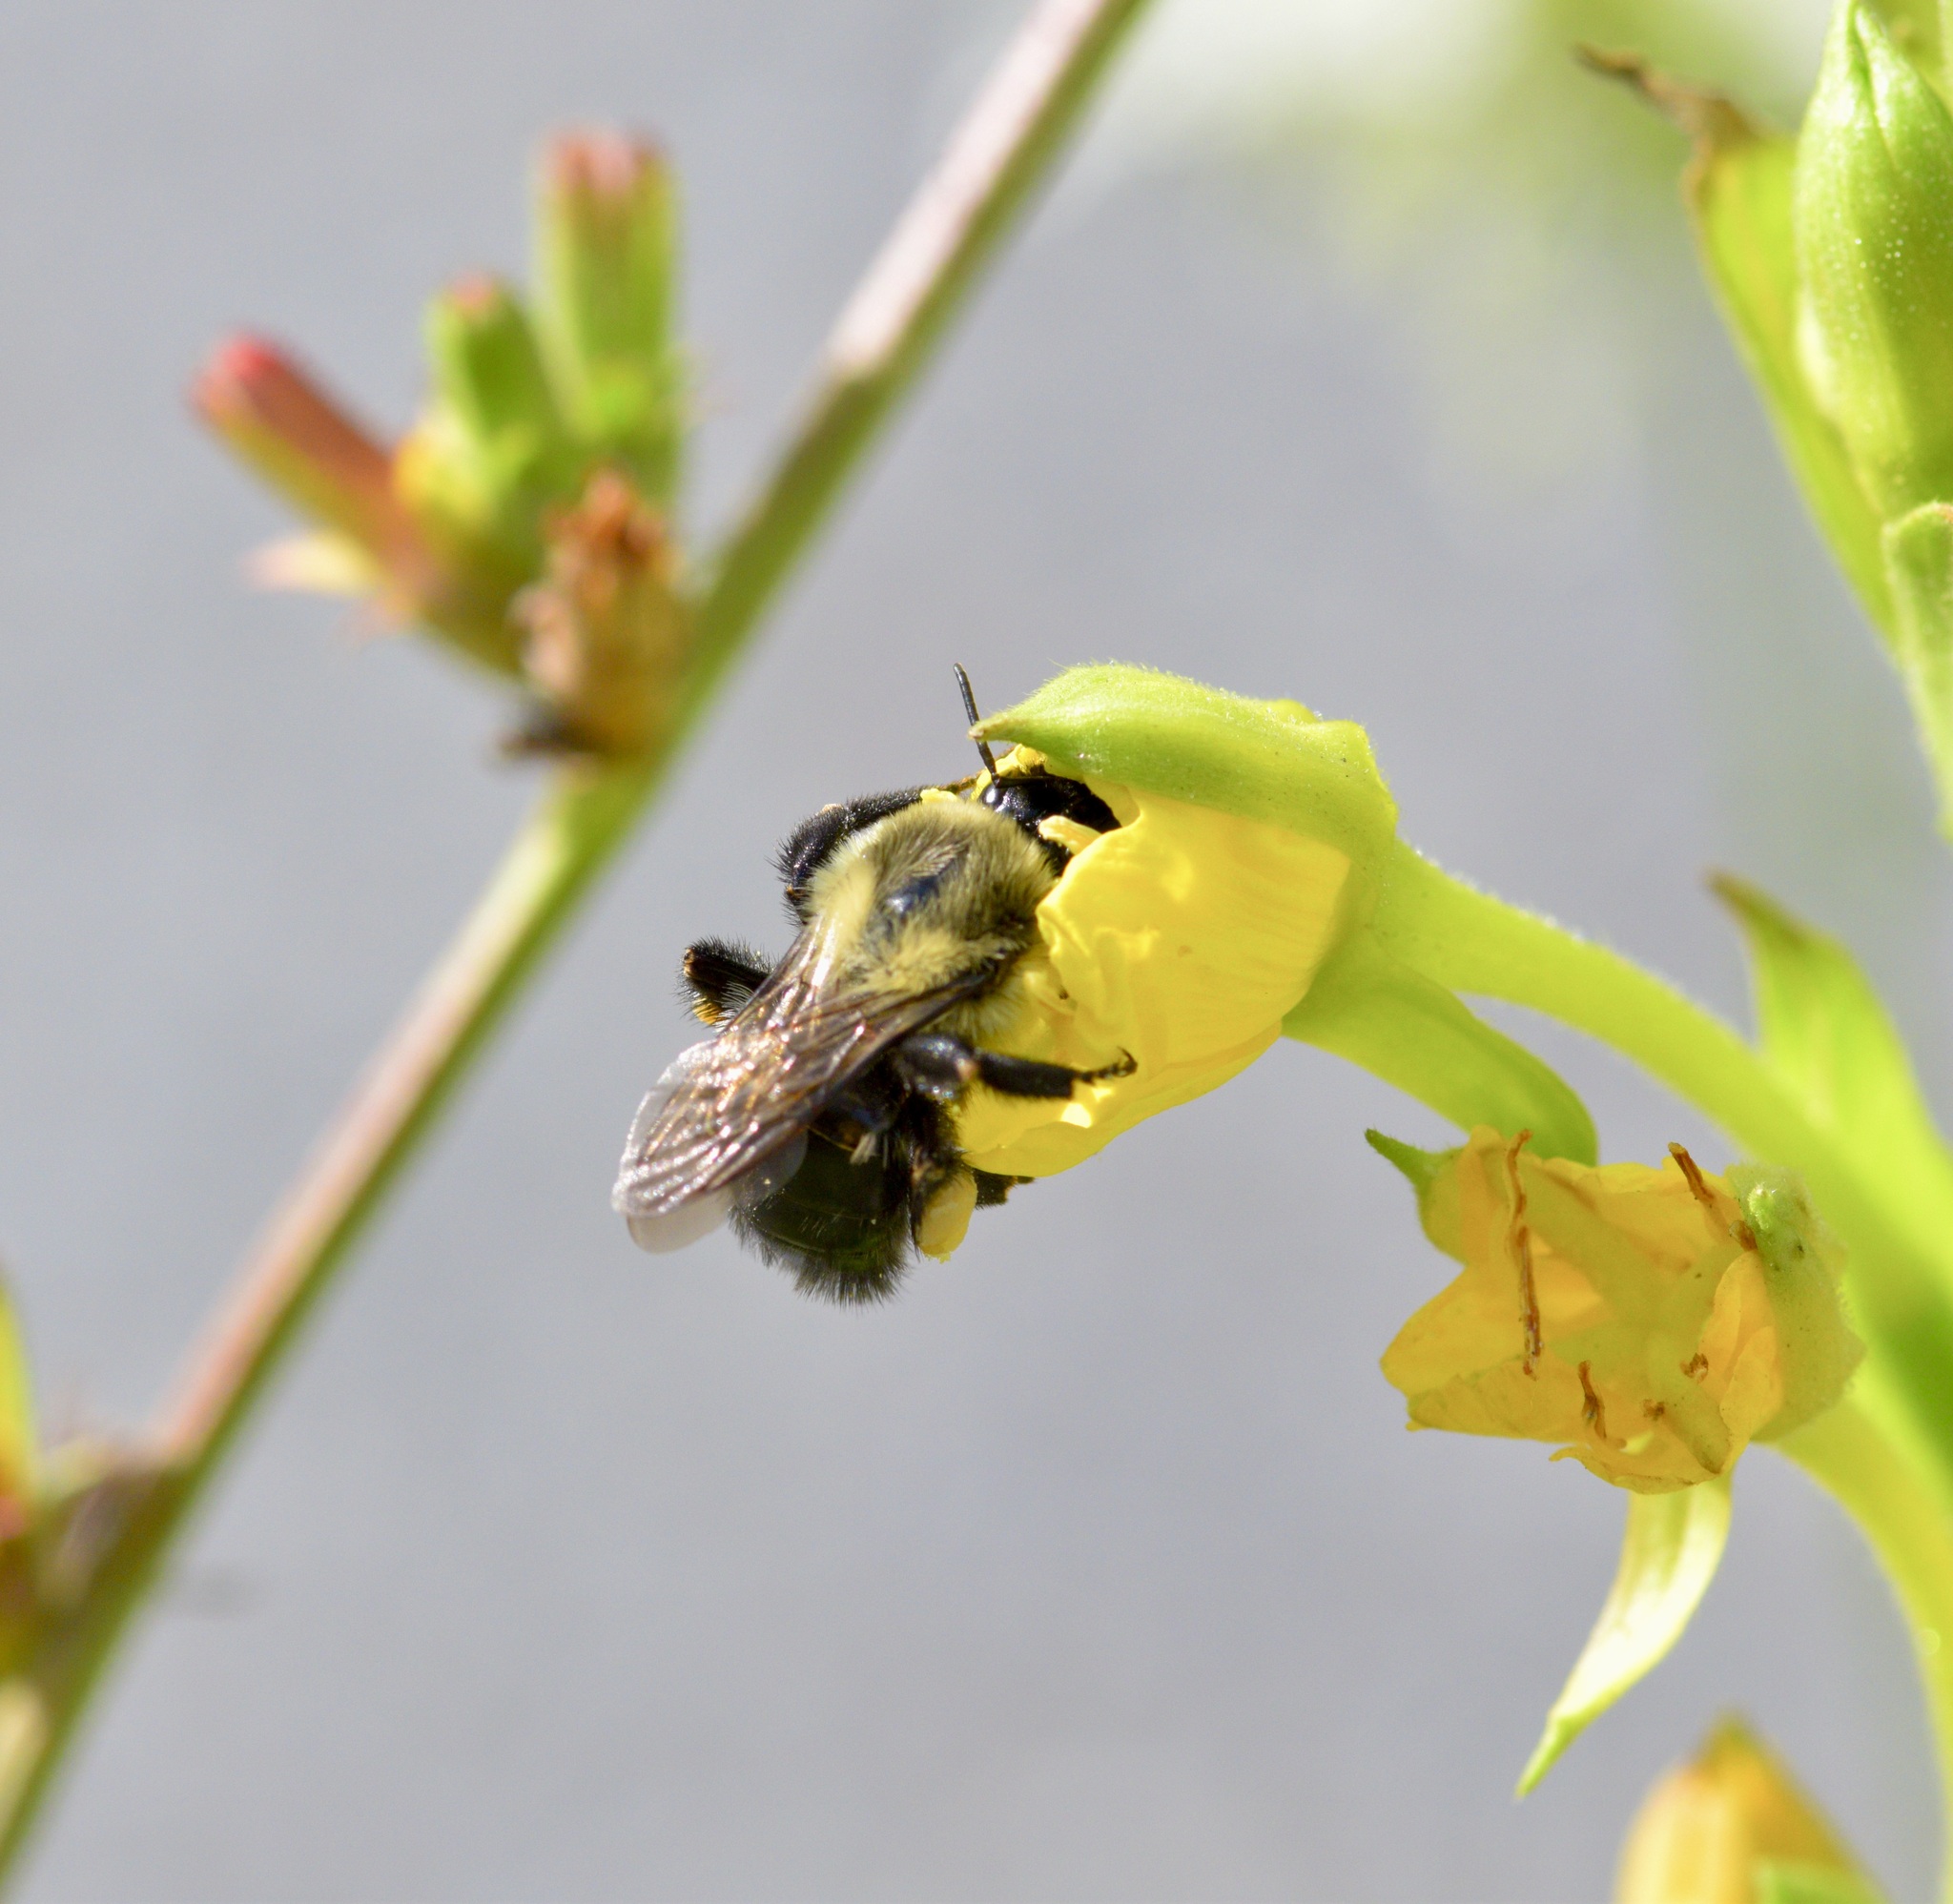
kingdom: Animalia
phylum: Arthropoda
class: Insecta
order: Hymenoptera
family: Apidae
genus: Bombus
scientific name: Bombus impatiens
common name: Common eastern bumble bee
